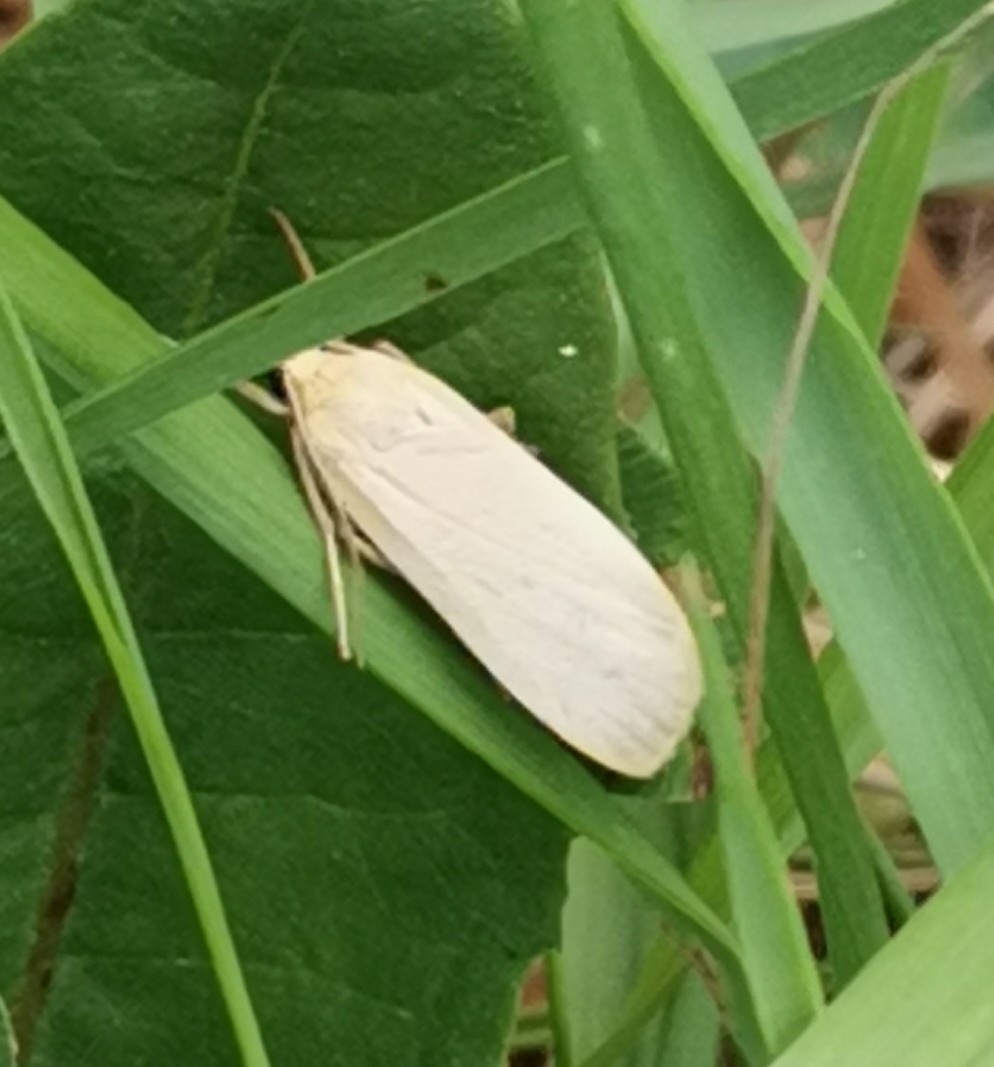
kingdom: Animalia
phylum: Arthropoda
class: Insecta
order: Lepidoptera
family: Erebidae
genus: Katha
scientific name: Katha depressa
